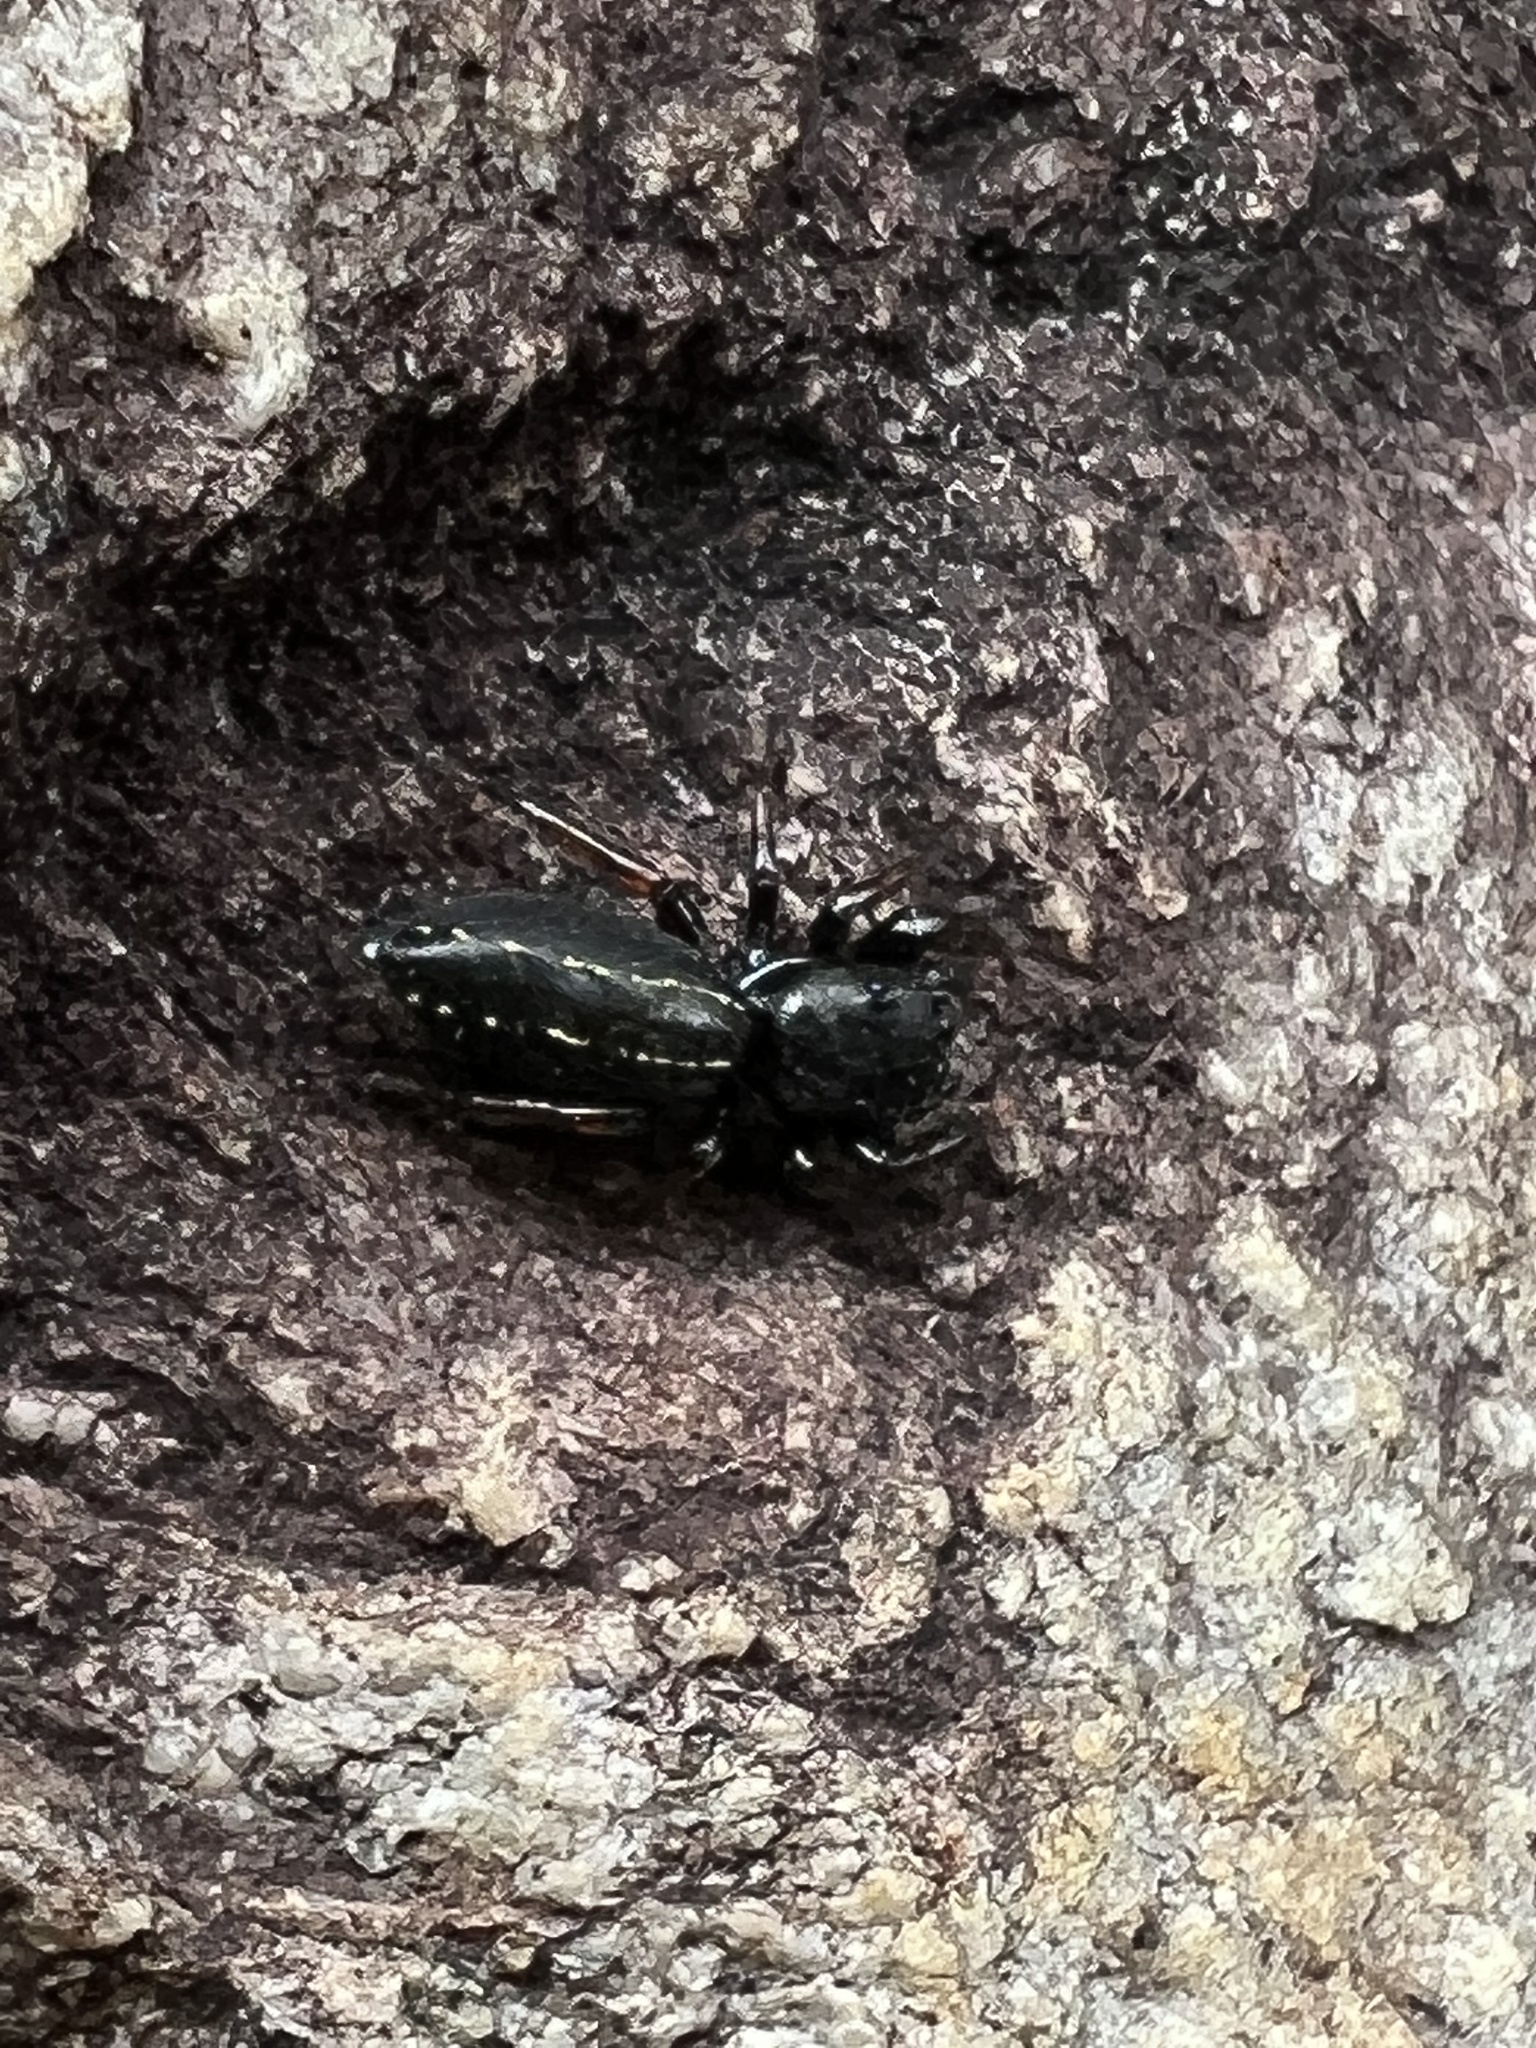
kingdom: Animalia
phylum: Arthropoda
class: Arachnida
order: Araneae
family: Salticidae
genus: Metacyrba
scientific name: Metacyrba taeniola
